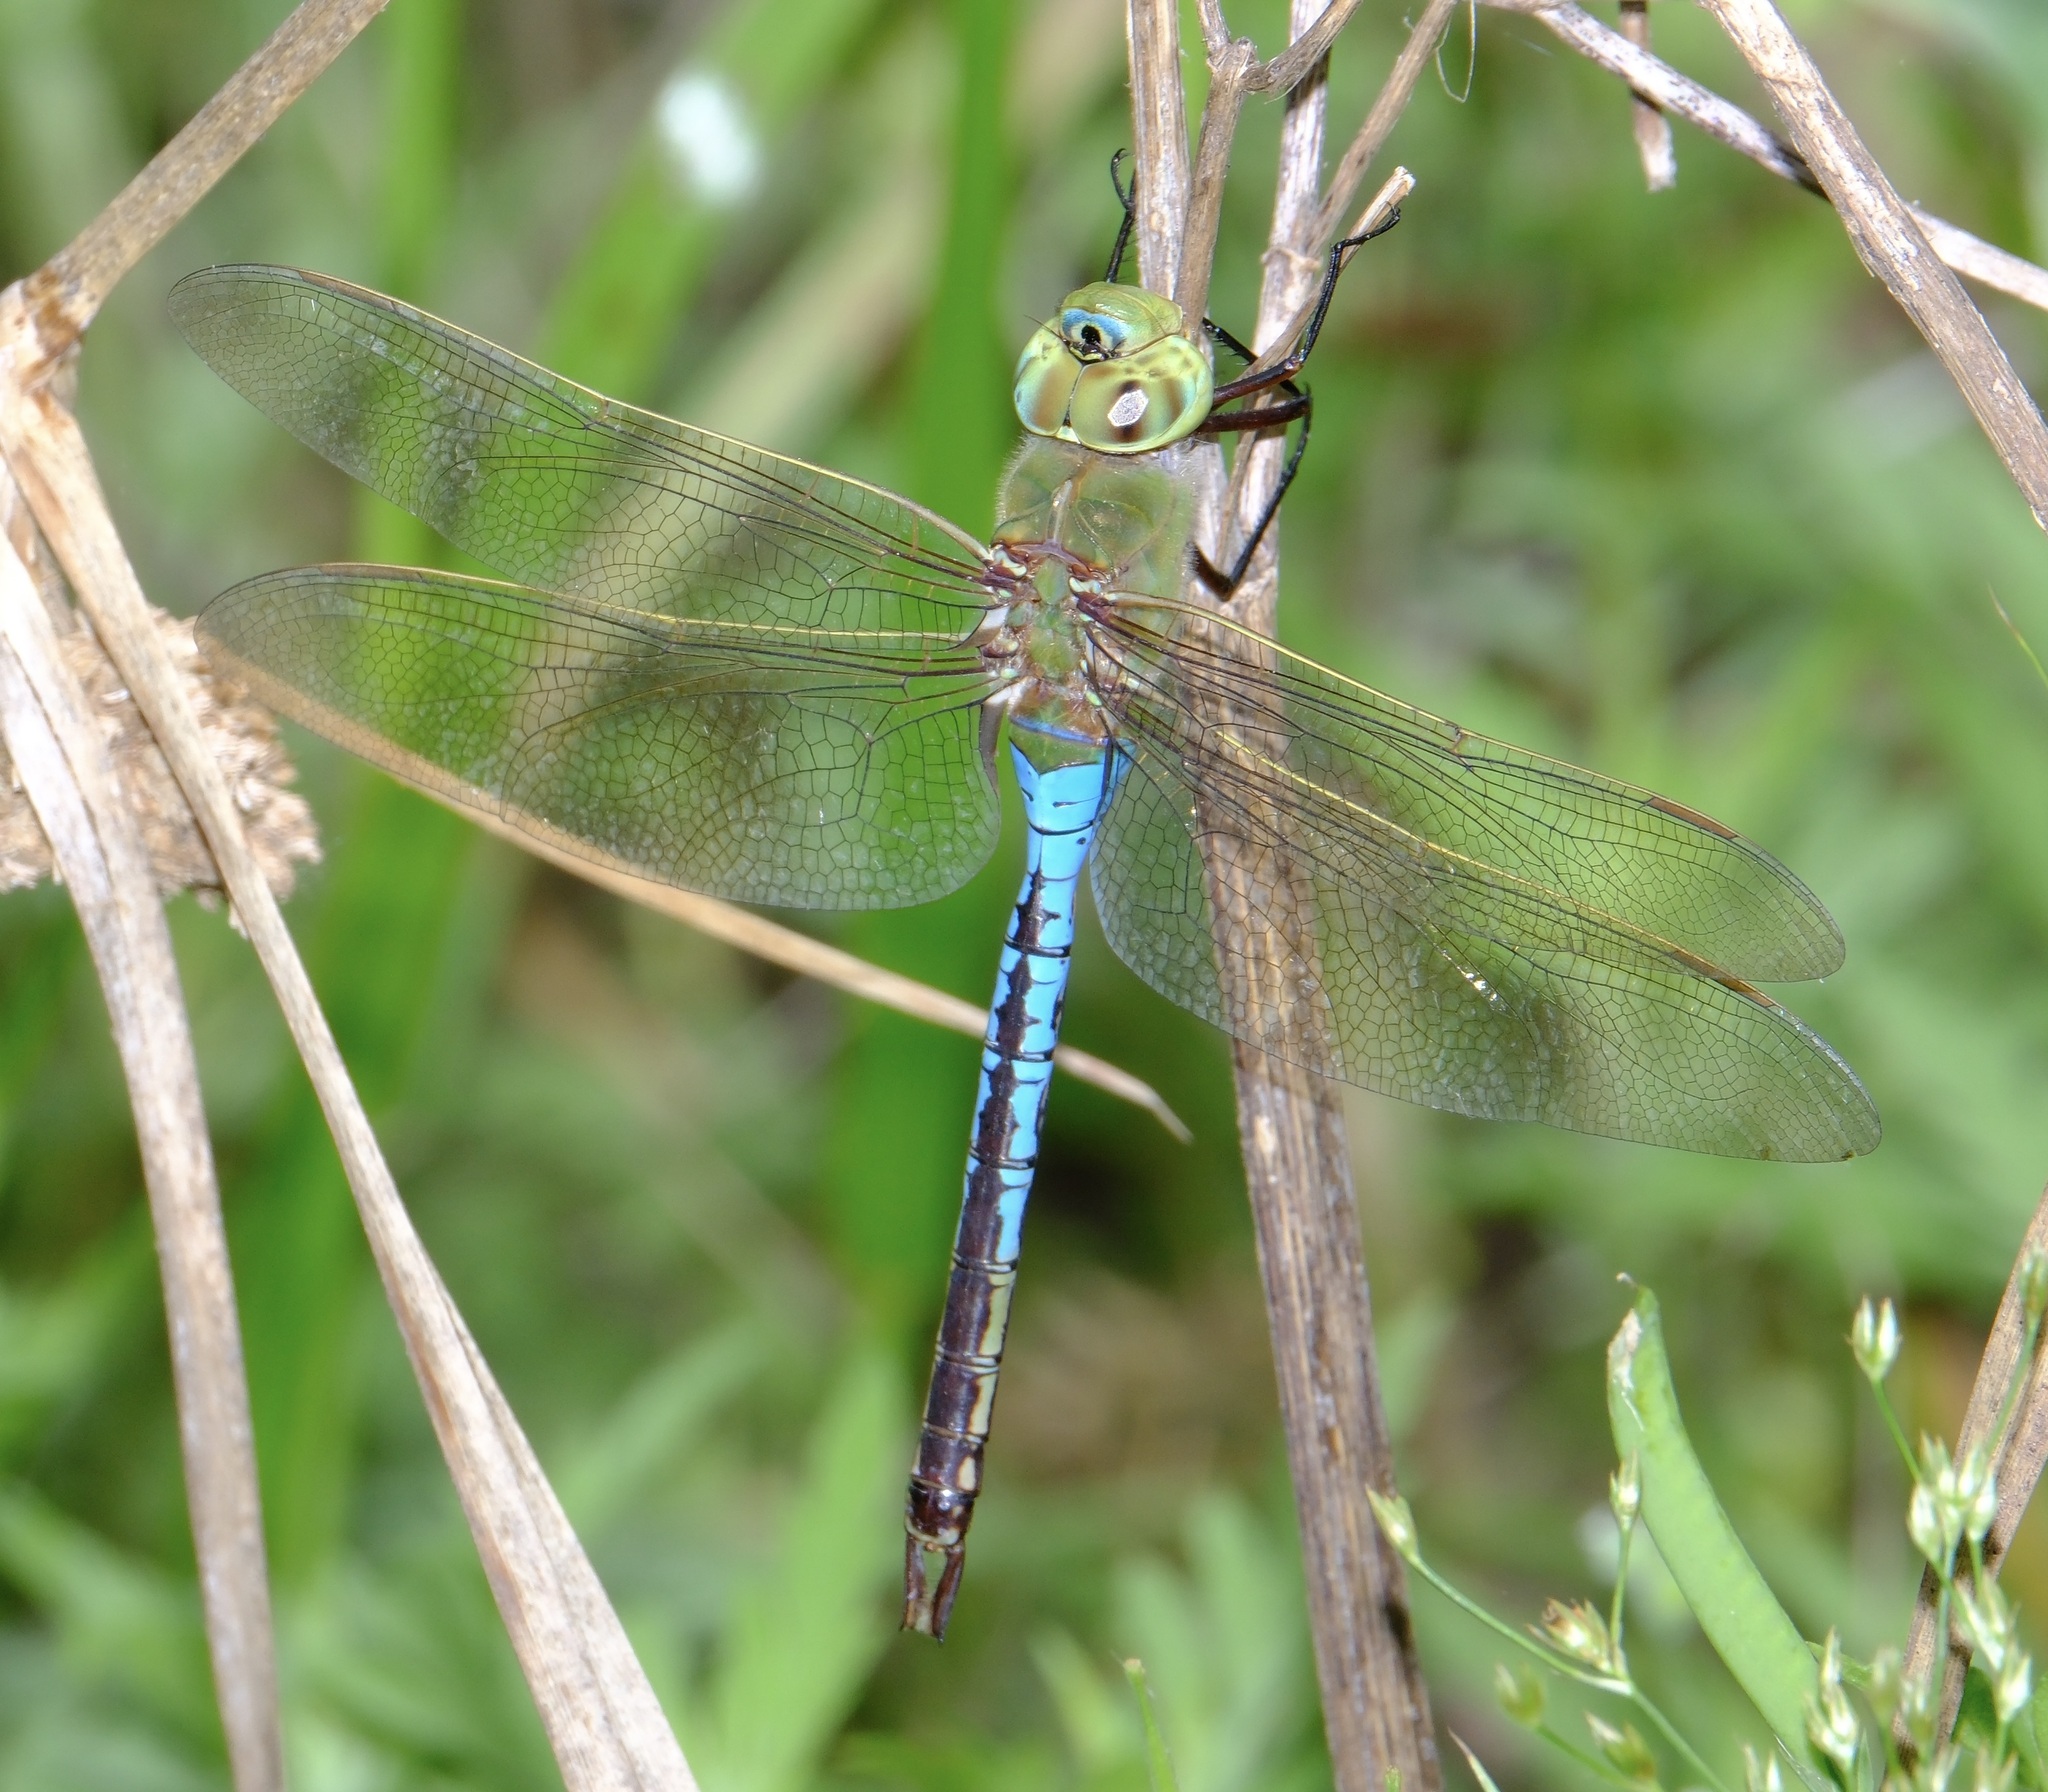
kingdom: Animalia
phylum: Arthropoda
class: Insecta
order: Odonata
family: Aeshnidae
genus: Anax
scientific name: Anax junius
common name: Common green darner
